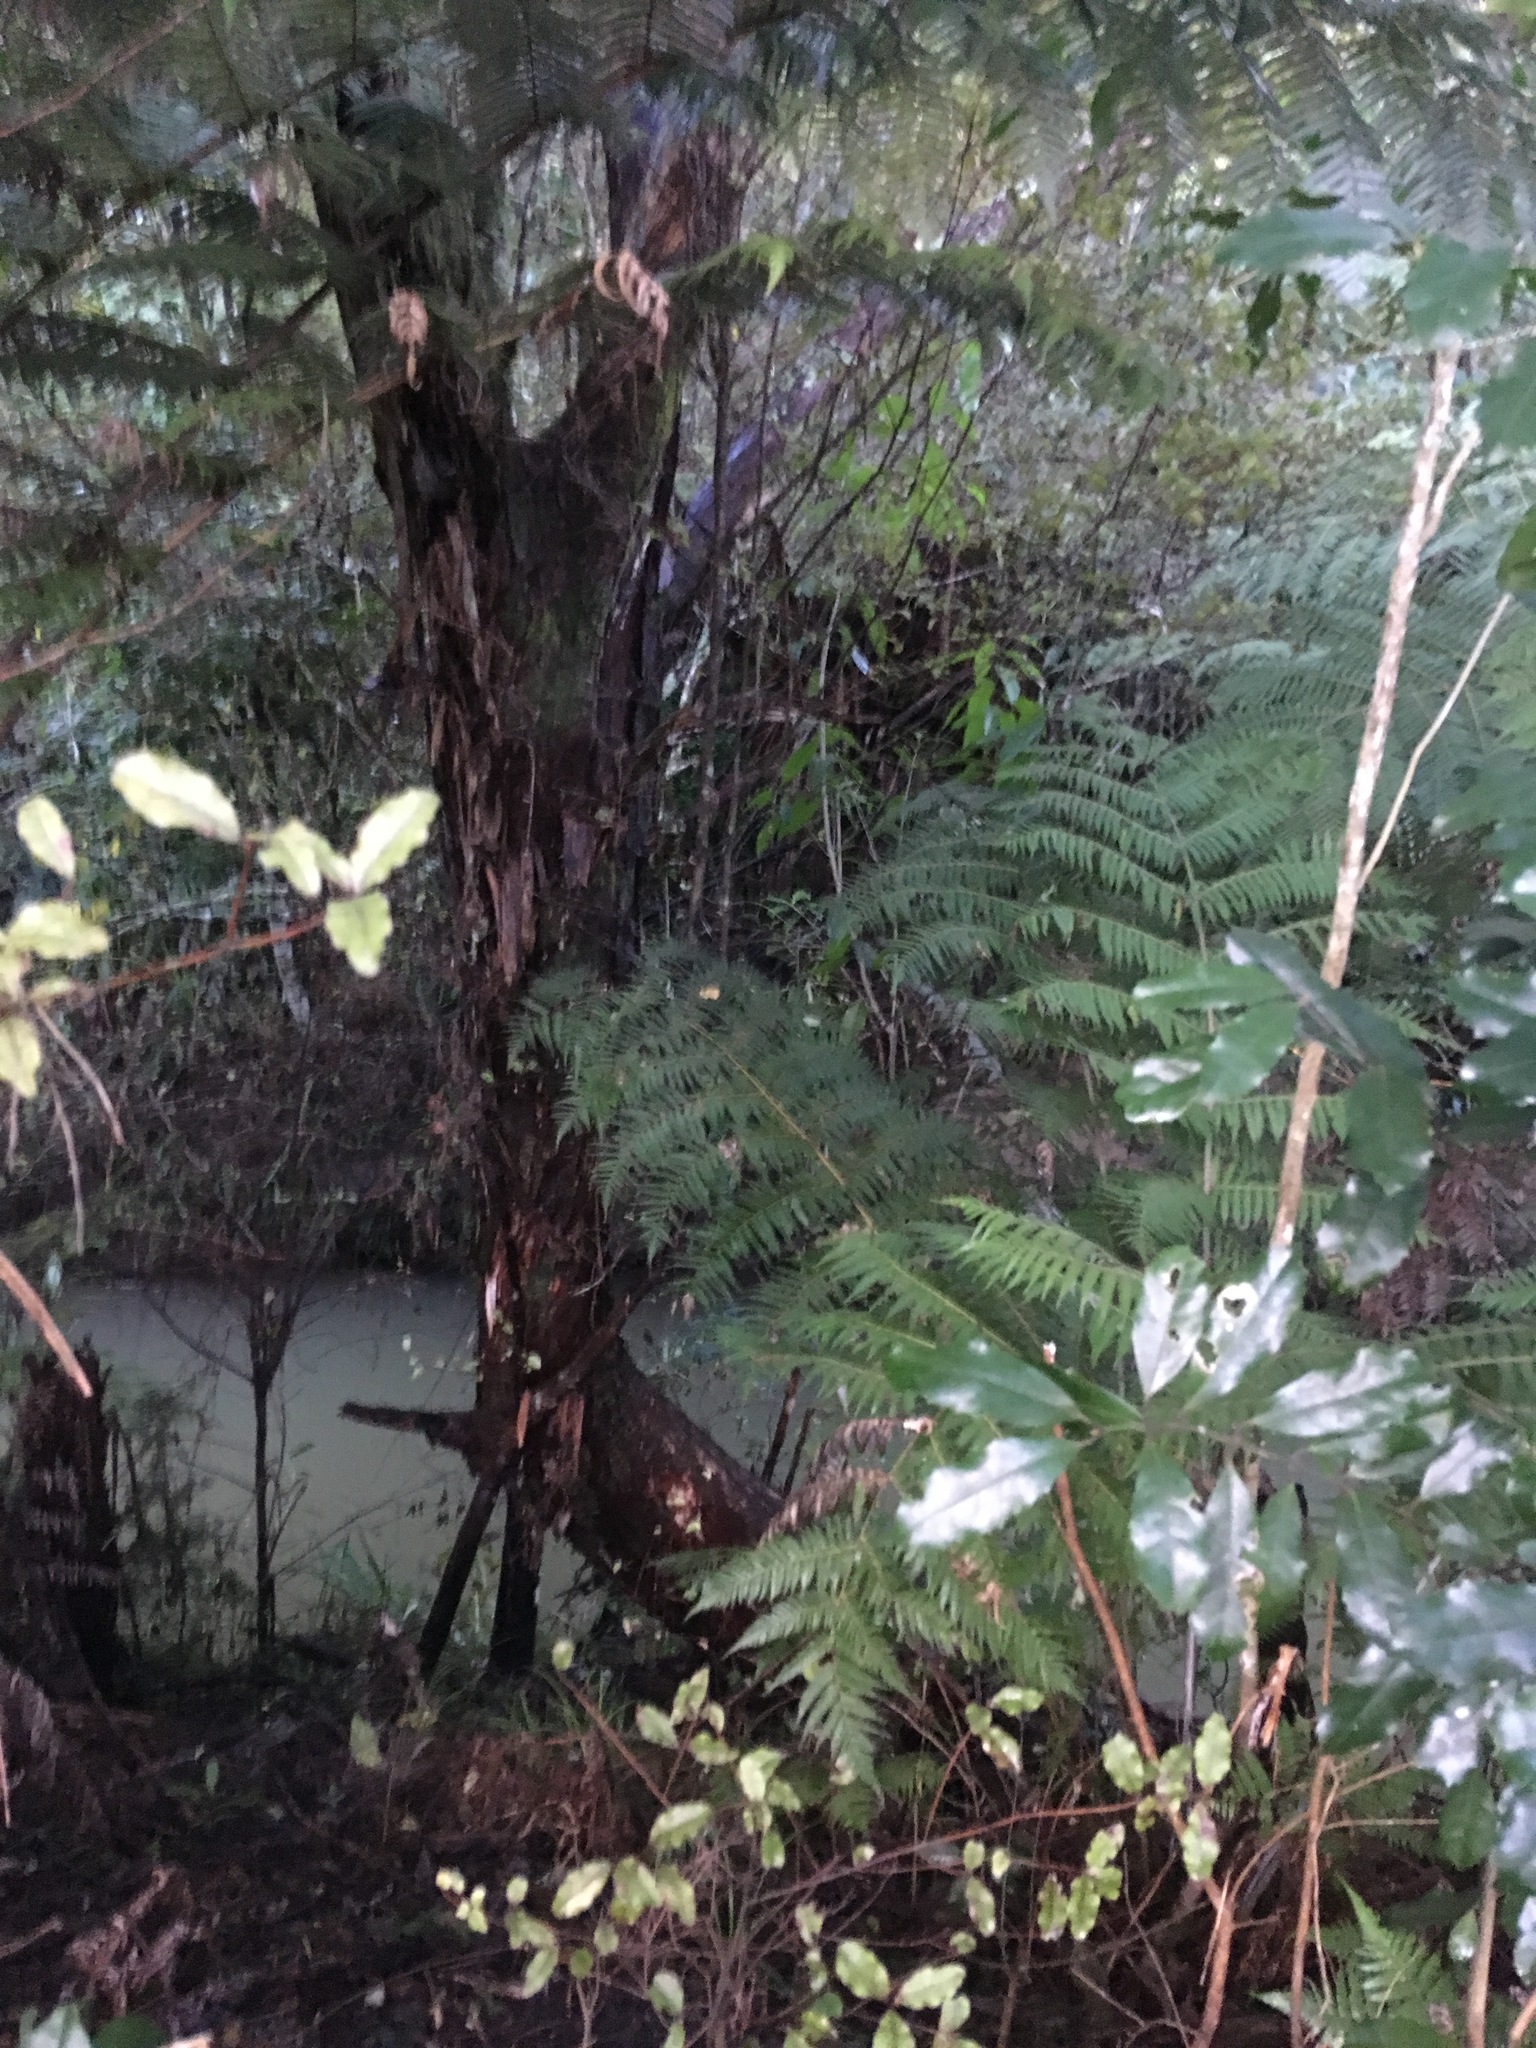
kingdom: Plantae
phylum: Tracheophyta
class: Magnoliopsida
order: Laurales
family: Monimiaceae
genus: Hedycarya
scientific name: Hedycarya arborea
